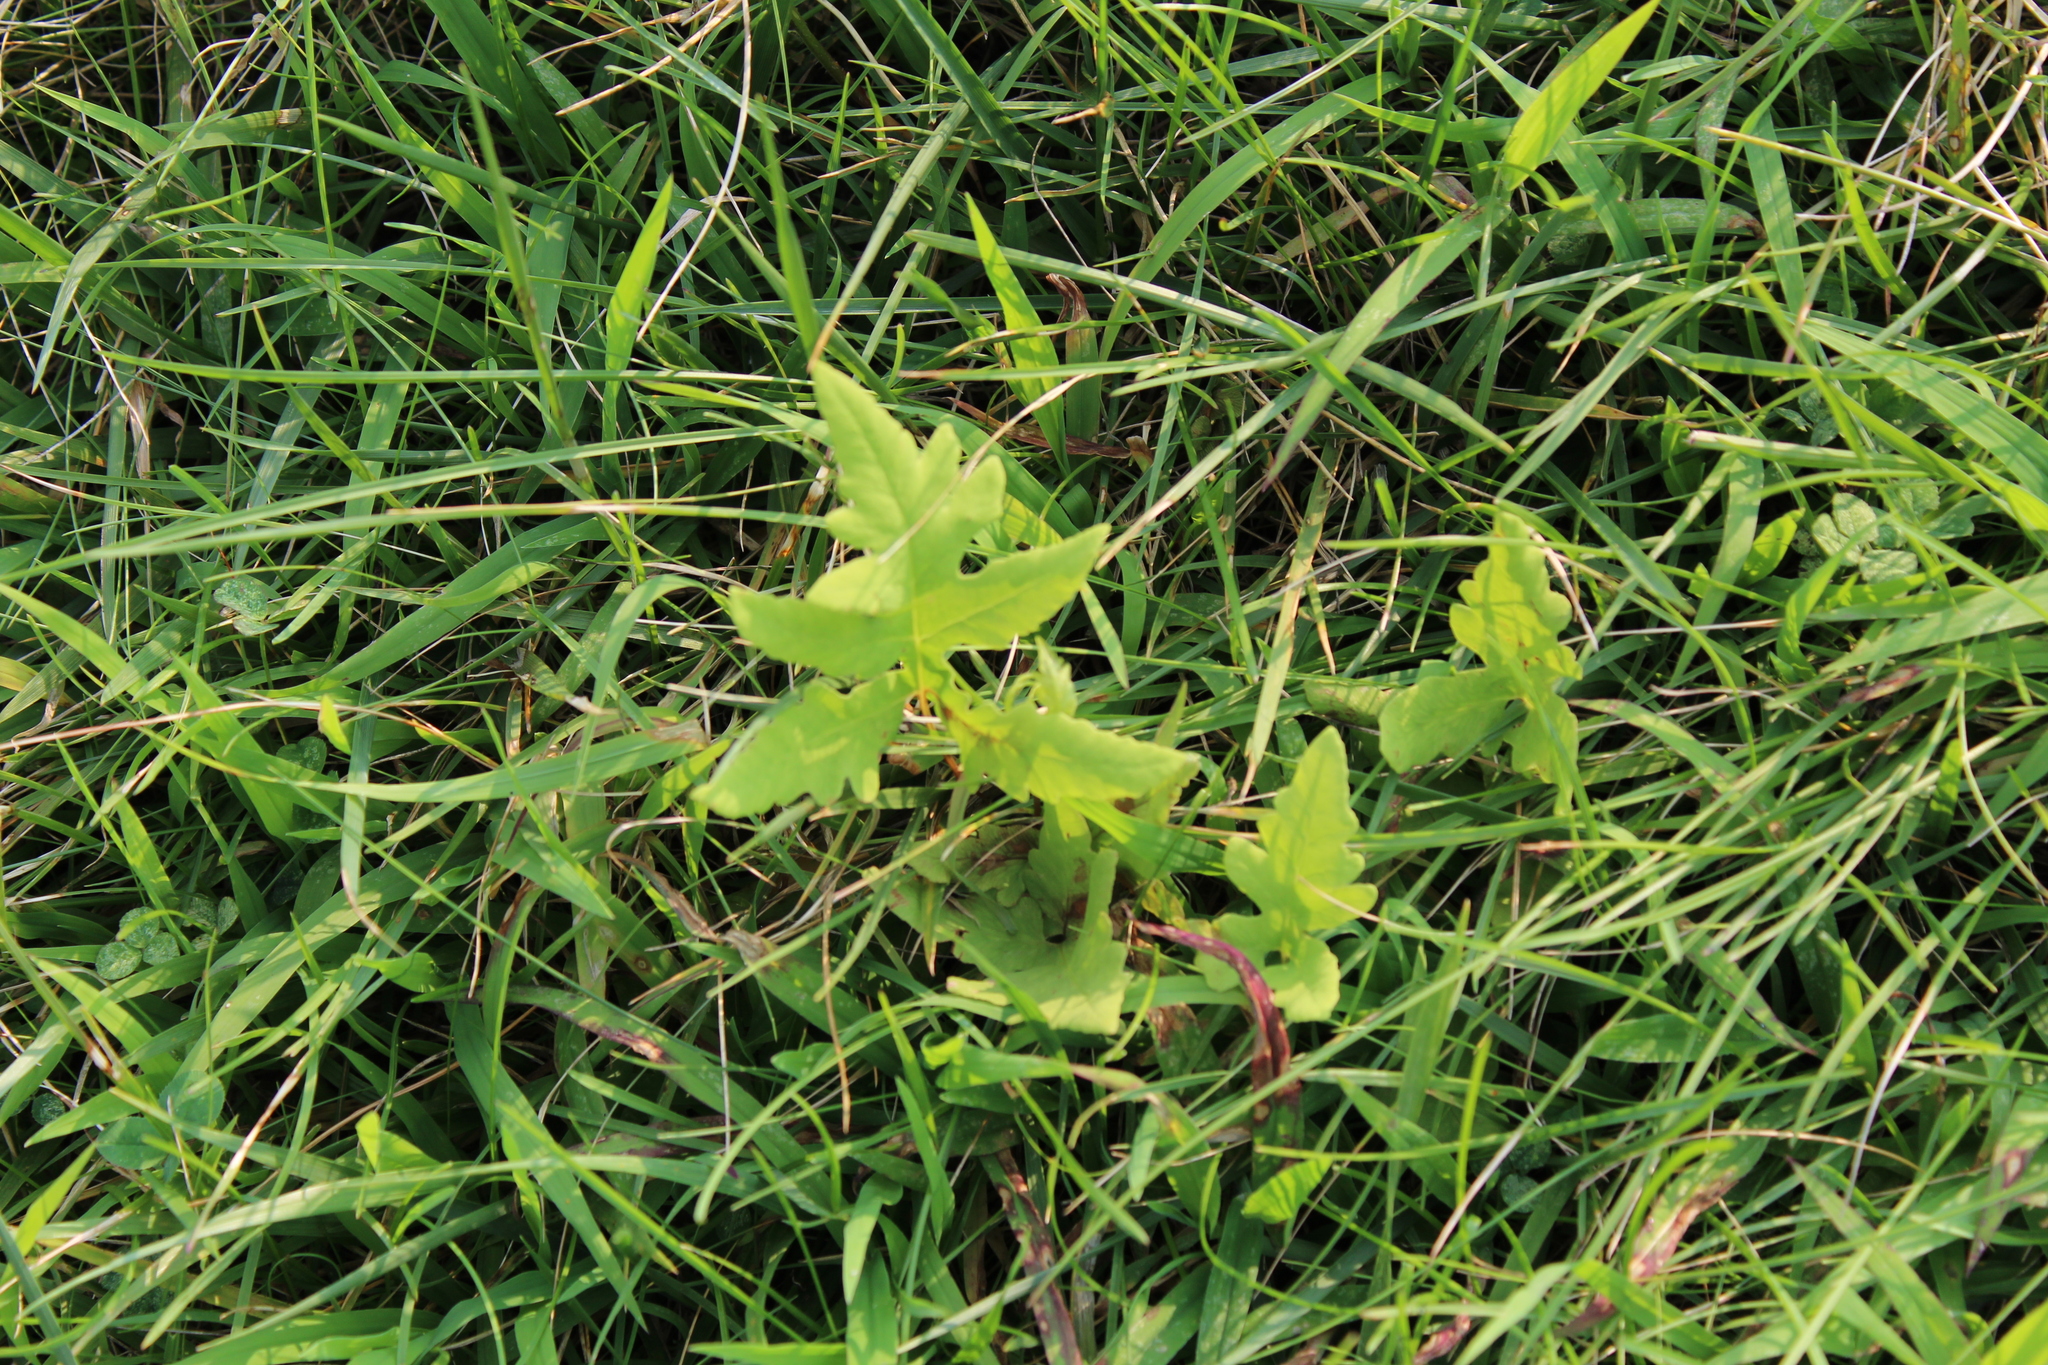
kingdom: Plantae
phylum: Tracheophyta
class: Polypodiopsida
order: Polypodiales
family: Onocleaceae
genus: Onoclea
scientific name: Onoclea sensibilis
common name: Sensitive fern
